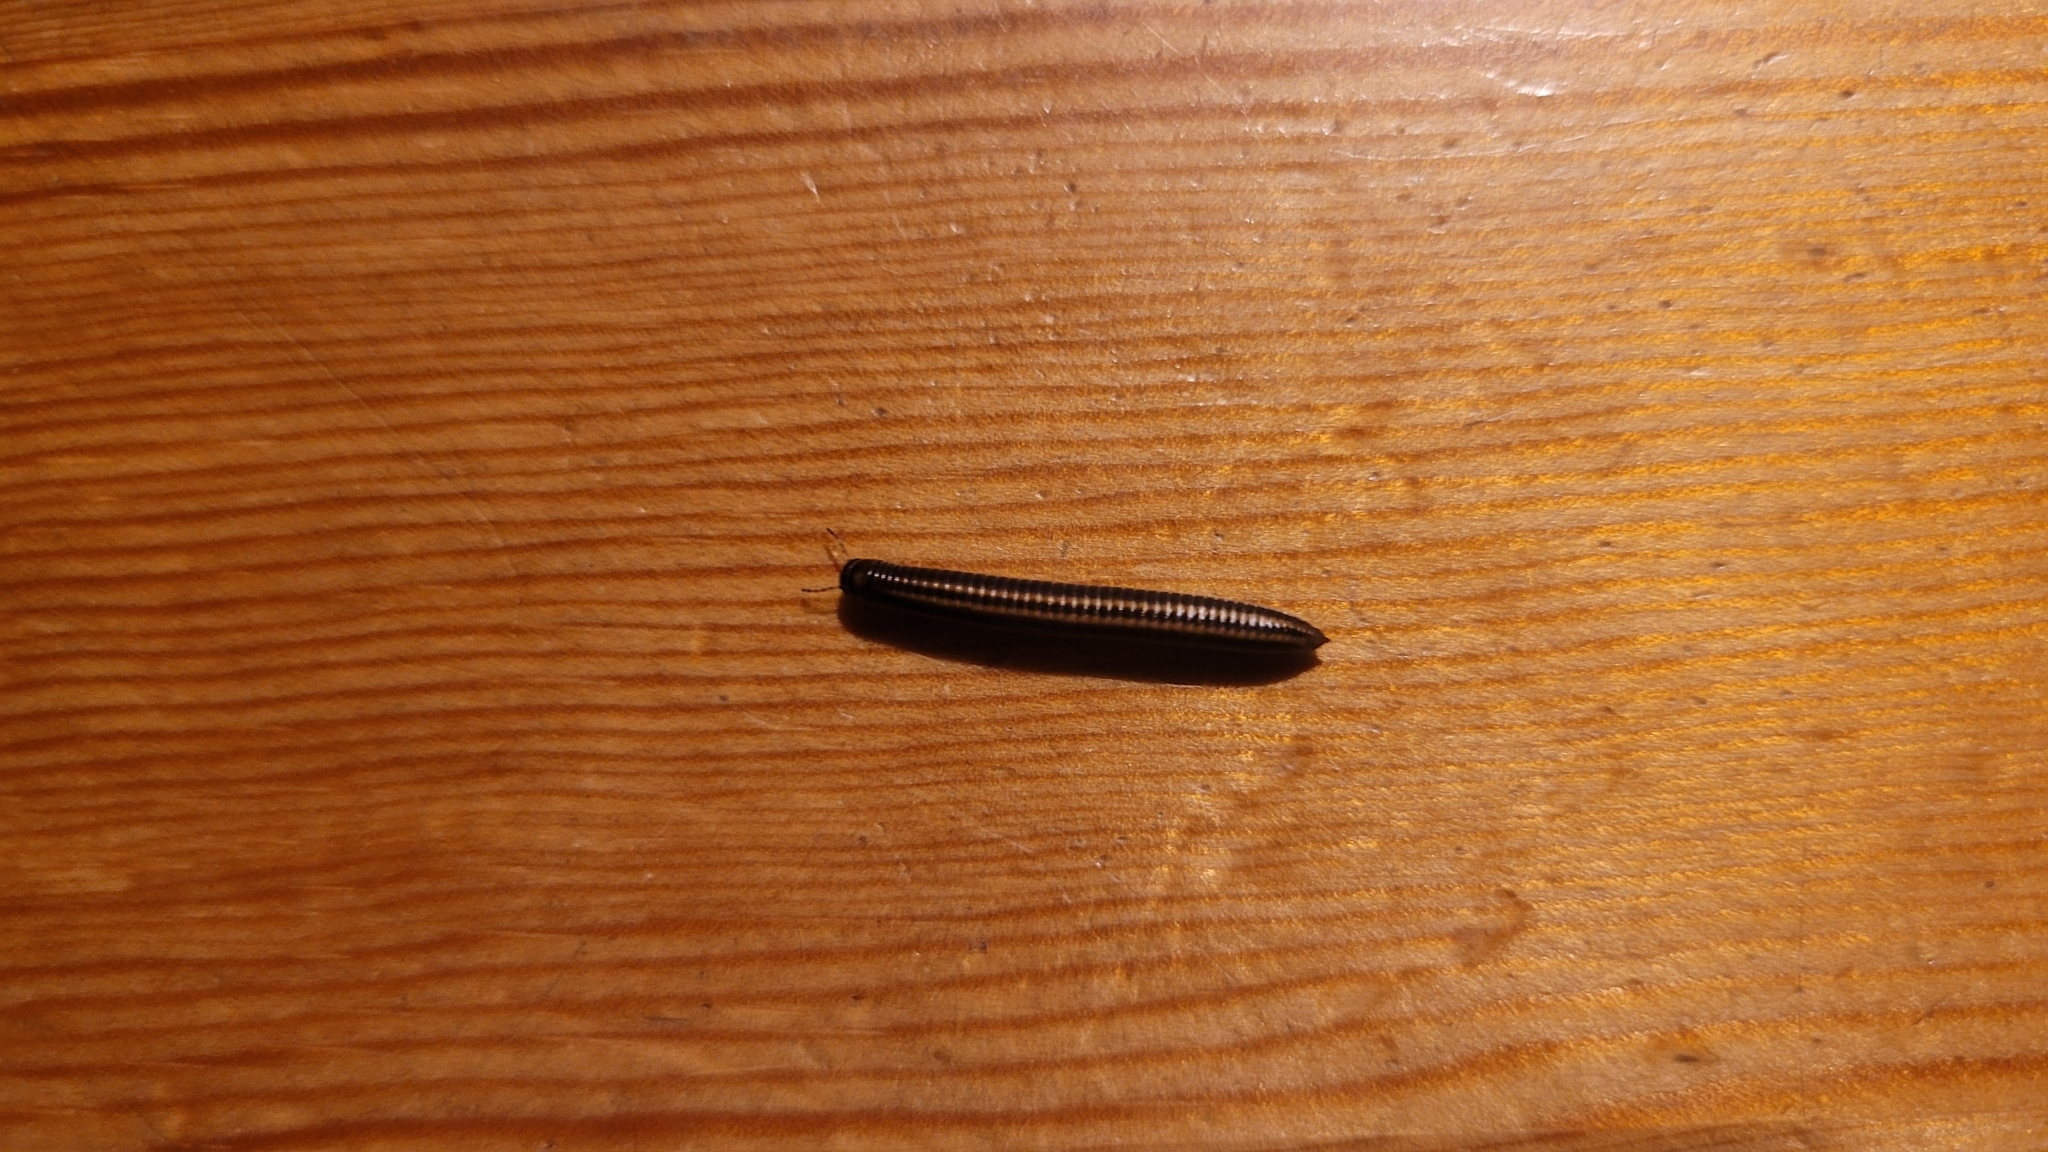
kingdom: Animalia
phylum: Arthropoda
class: Diplopoda
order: Julida
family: Julidae
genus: Ommatoiulus
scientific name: Ommatoiulus sabulosus
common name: Striped millipede
